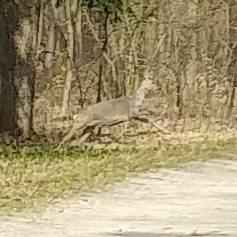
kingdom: Animalia
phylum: Chordata
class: Mammalia
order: Artiodactyla
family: Cervidae
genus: Capreolus
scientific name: Capreolus capreolus
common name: Western roe deer
